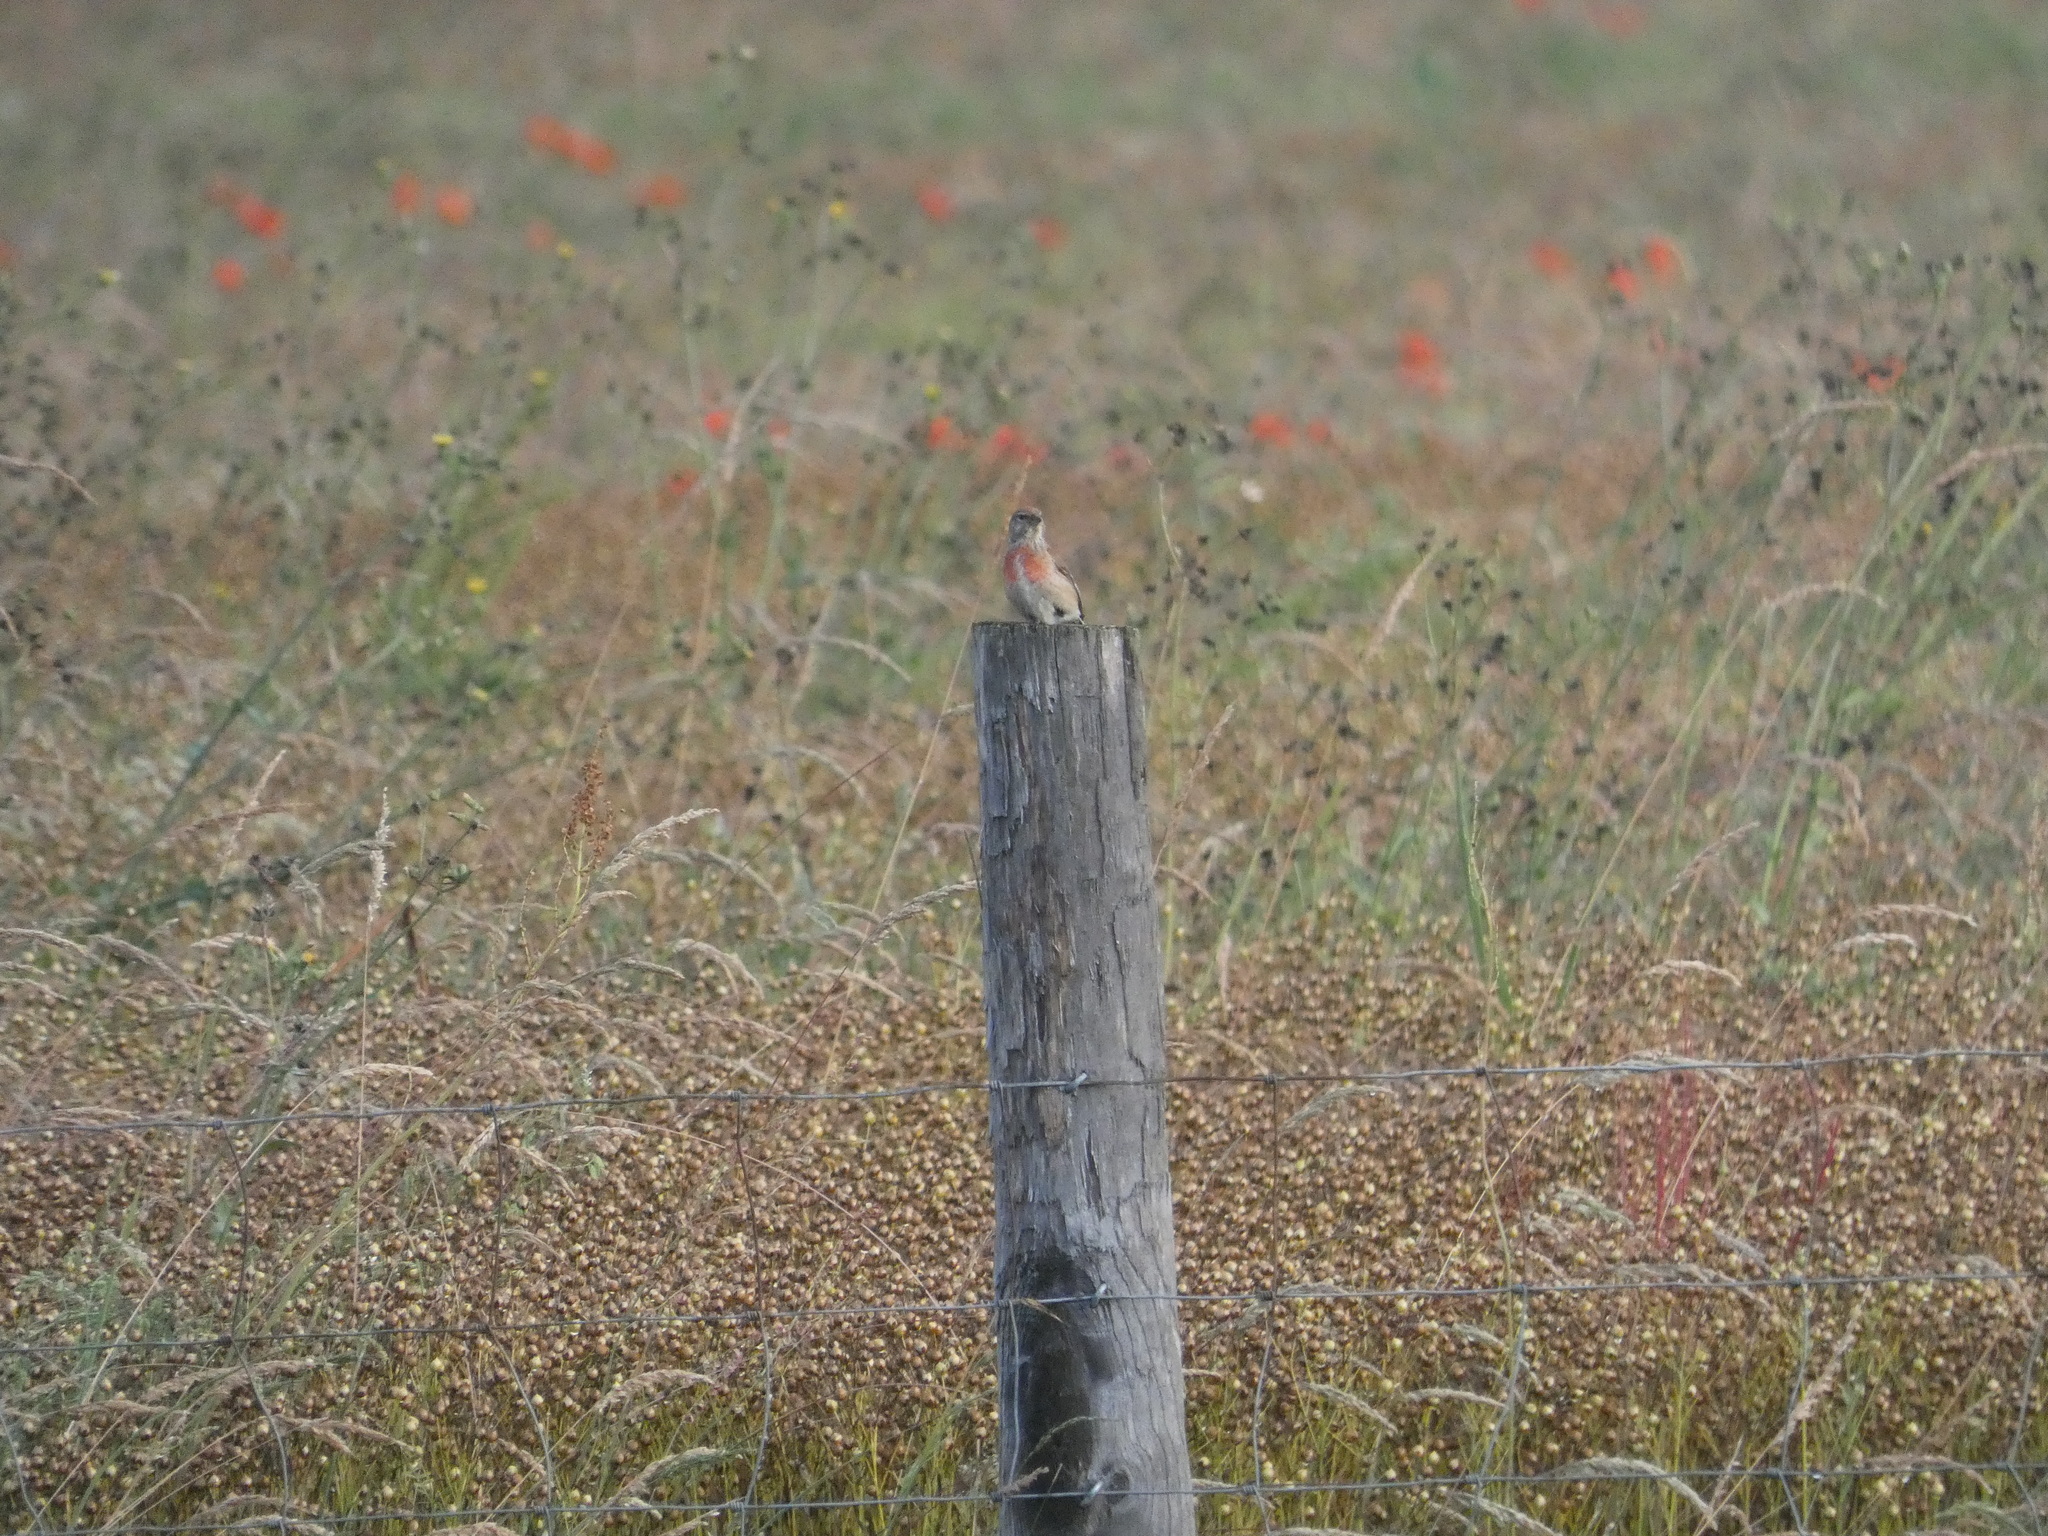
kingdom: Animalia
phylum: Chordata
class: Aves
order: Passeriformes
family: Fringillidae
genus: Linaria
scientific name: Linaria cannabina
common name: Common linnet
